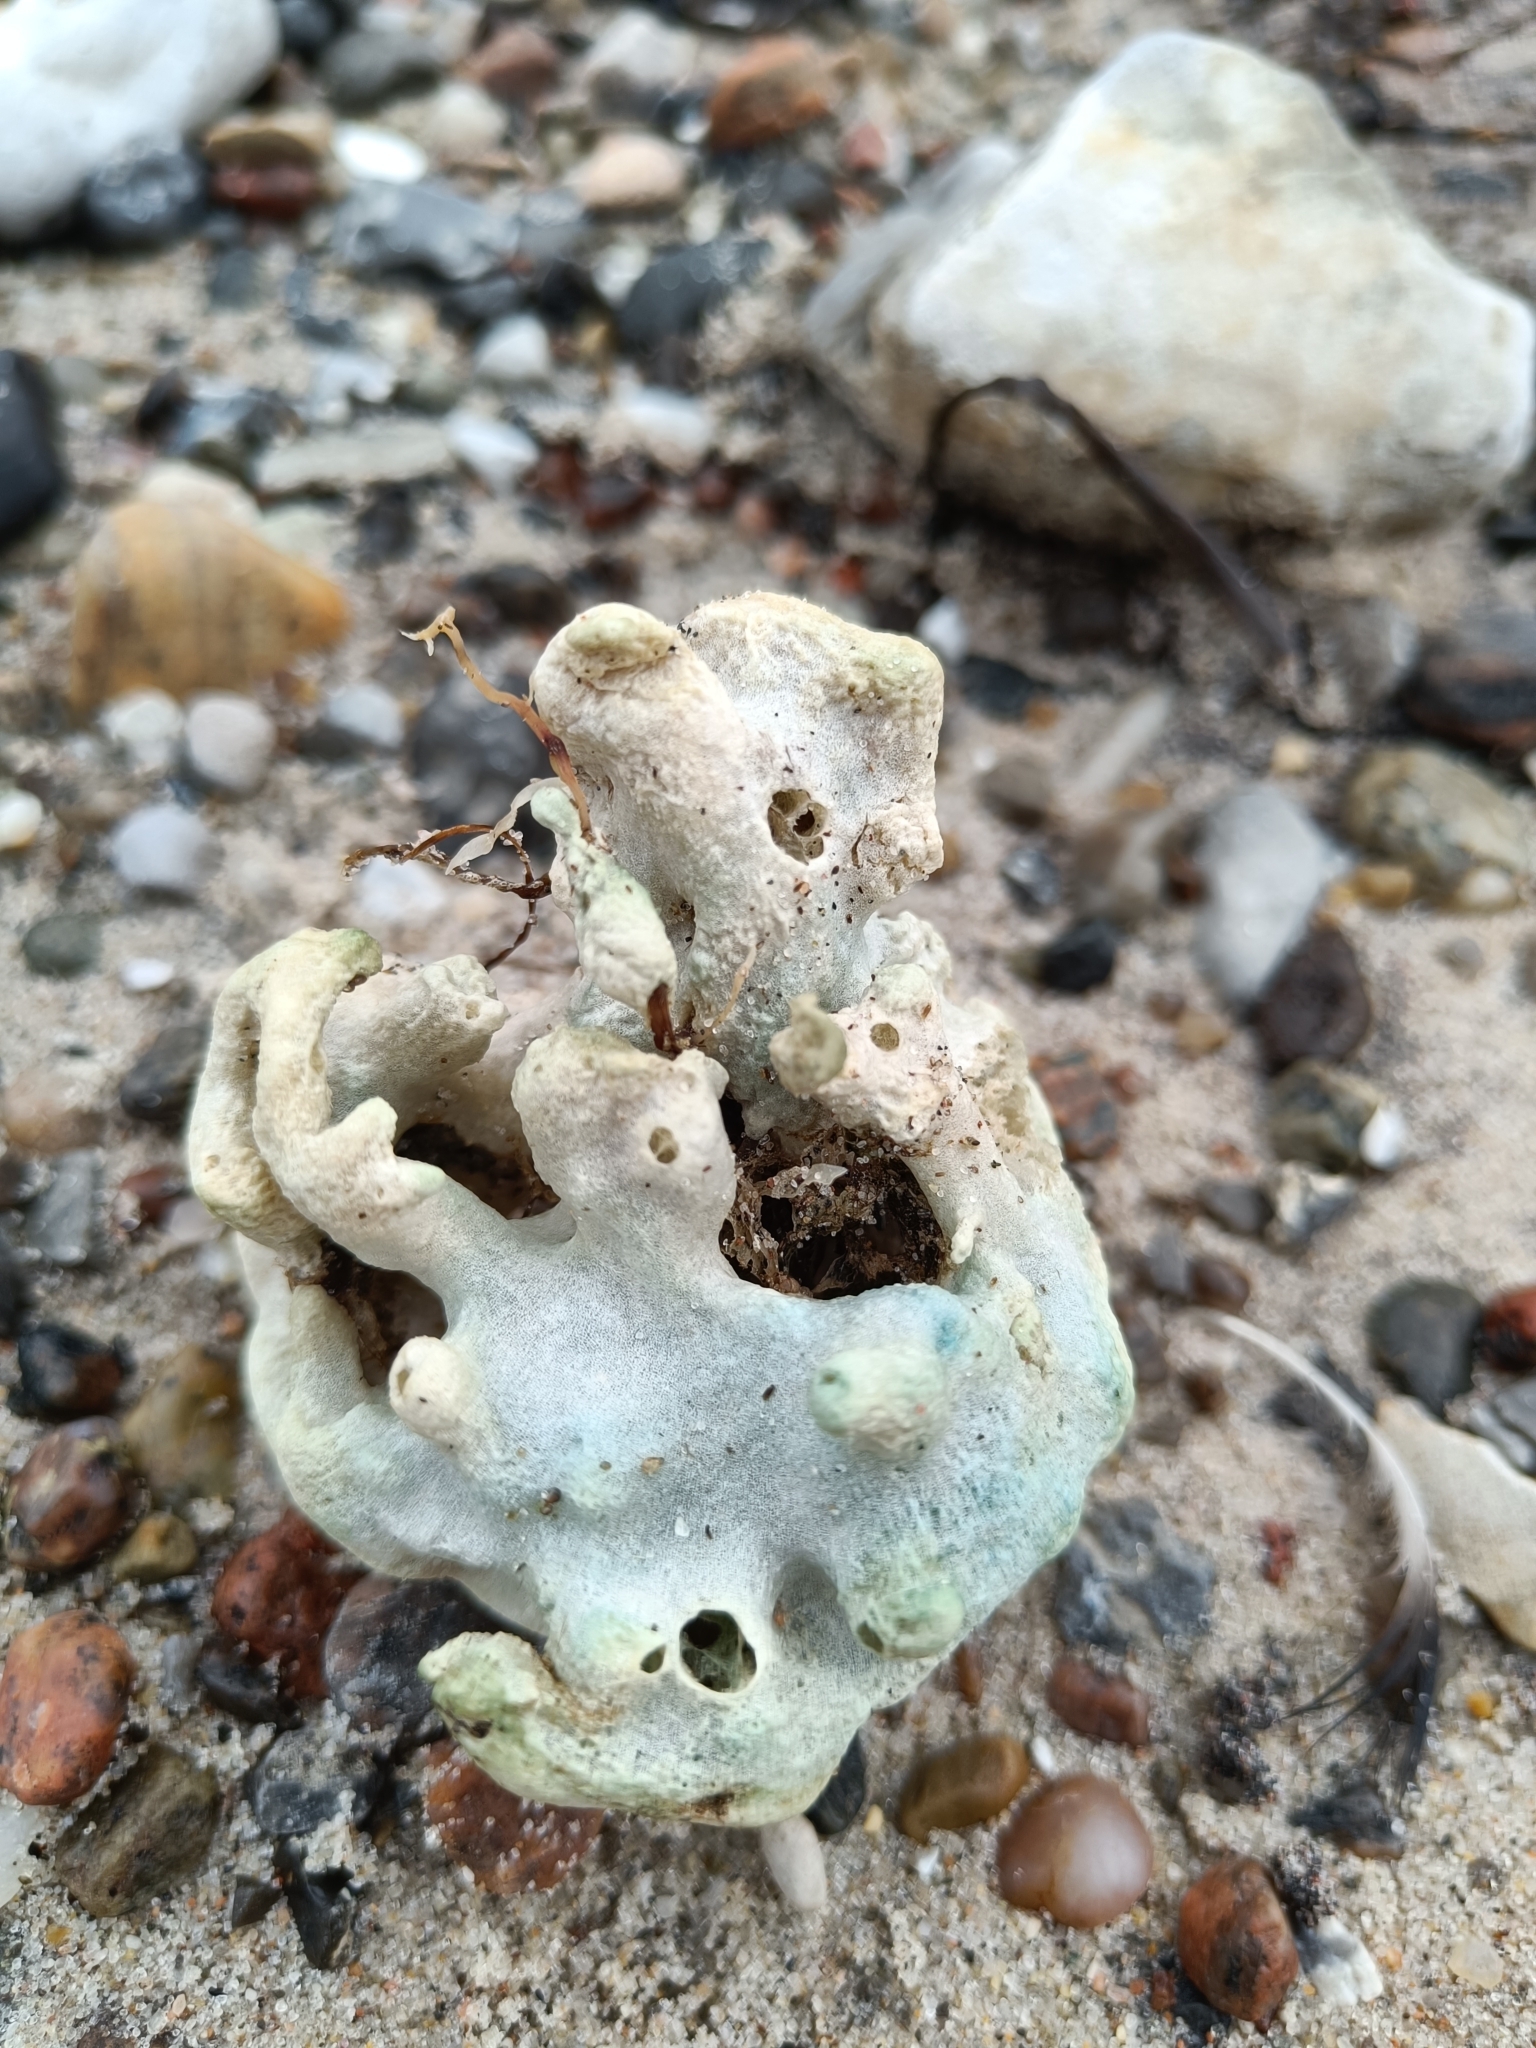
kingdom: Animalia
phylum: Porifera
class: Demospongiae
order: Suberitida
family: Halichondriidae
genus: Halichondria
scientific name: Halichondria panicea
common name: Breadcrumb sponge
